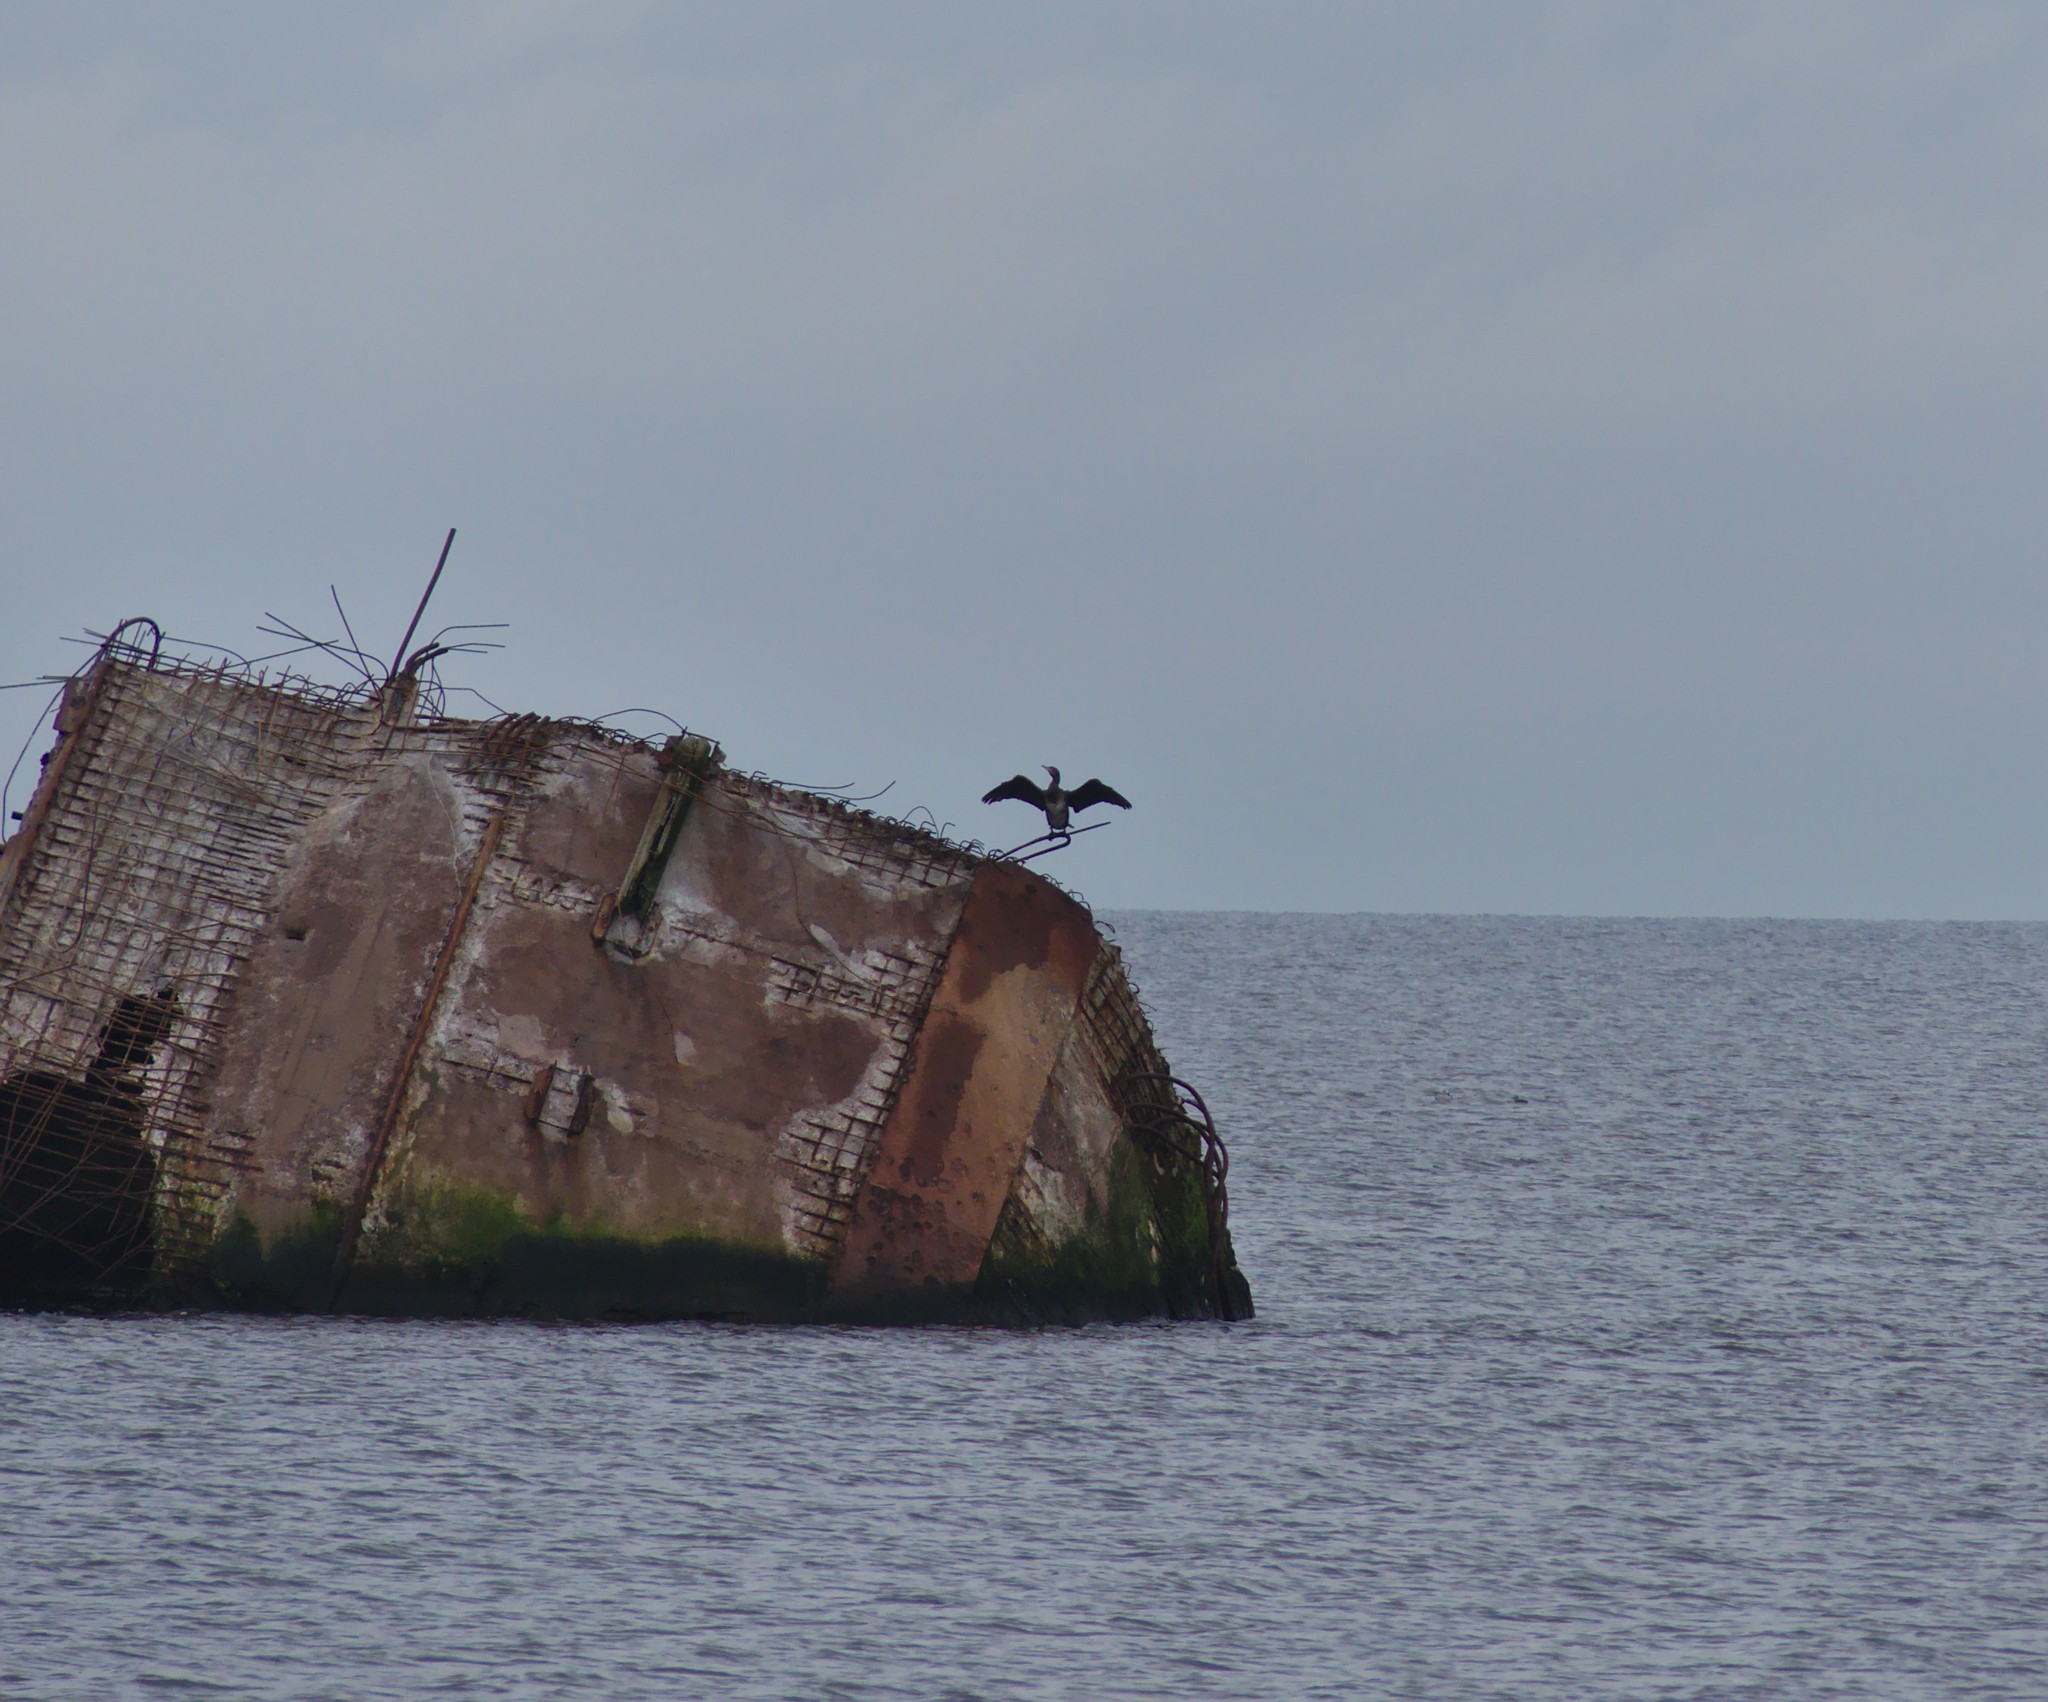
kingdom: Animalia
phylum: Chordata
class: Aves
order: Suliformes
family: Phalacrocoracidae
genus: Phalacrocorax
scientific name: Phalacrocorax carbo
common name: Great cormorant
